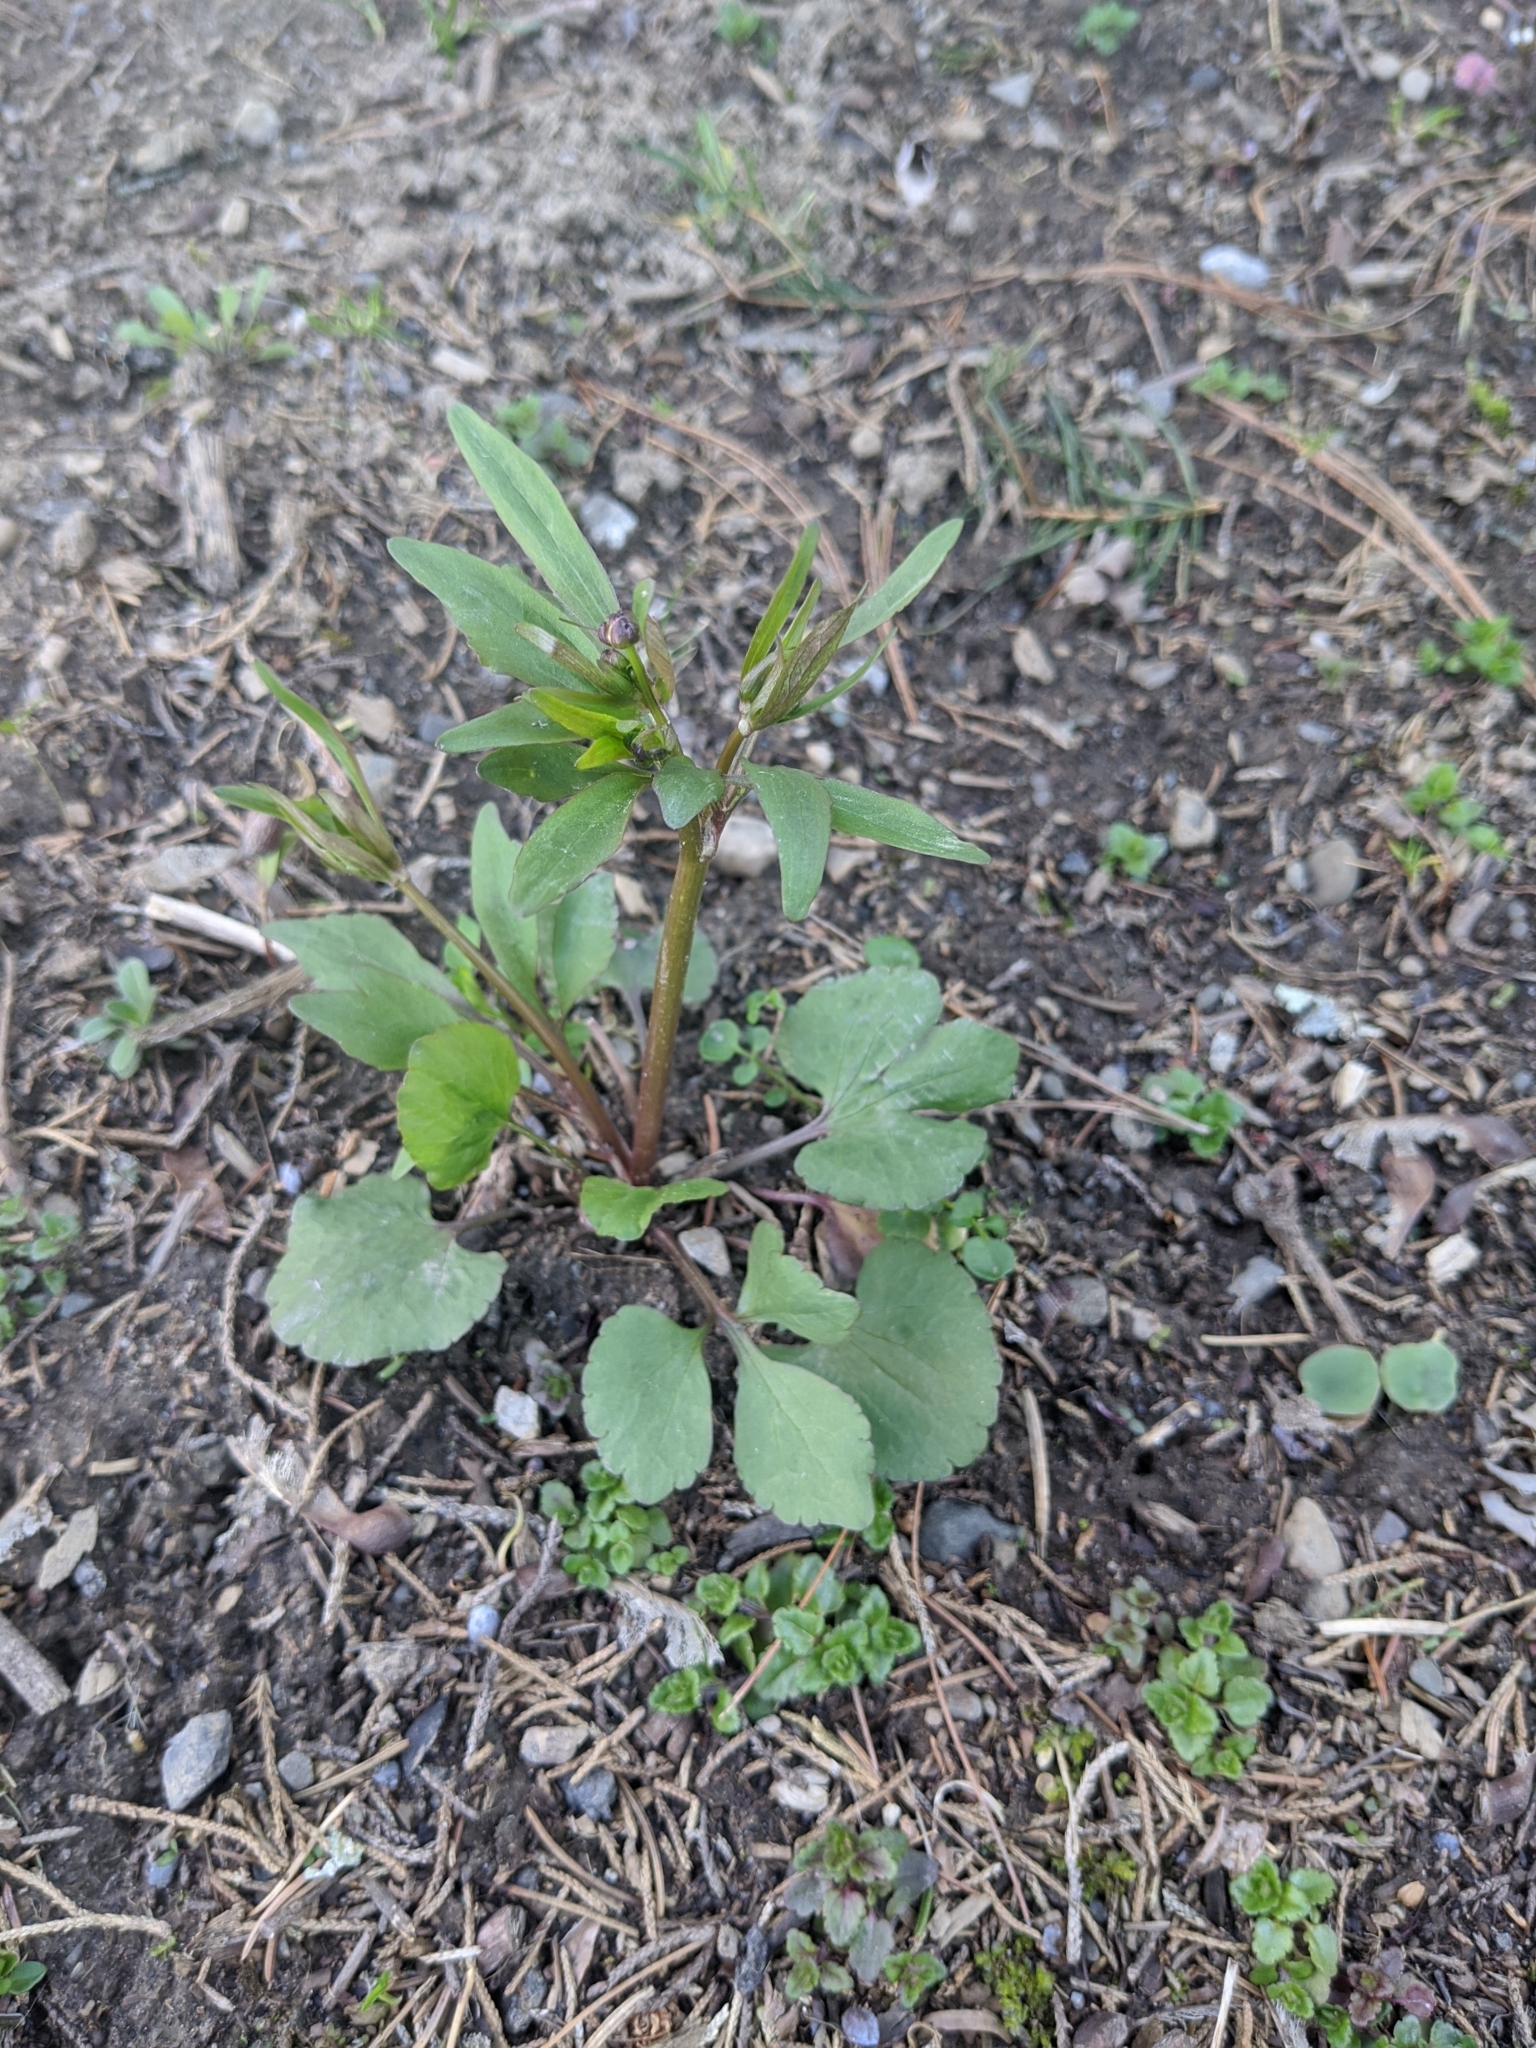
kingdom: Plantae
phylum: Tracheophyta
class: Magnoliopsida
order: Ranunculales
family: Ranunculaceae
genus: Ranunculus
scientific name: Ranunculus abortivus
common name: Early wood buttercup
